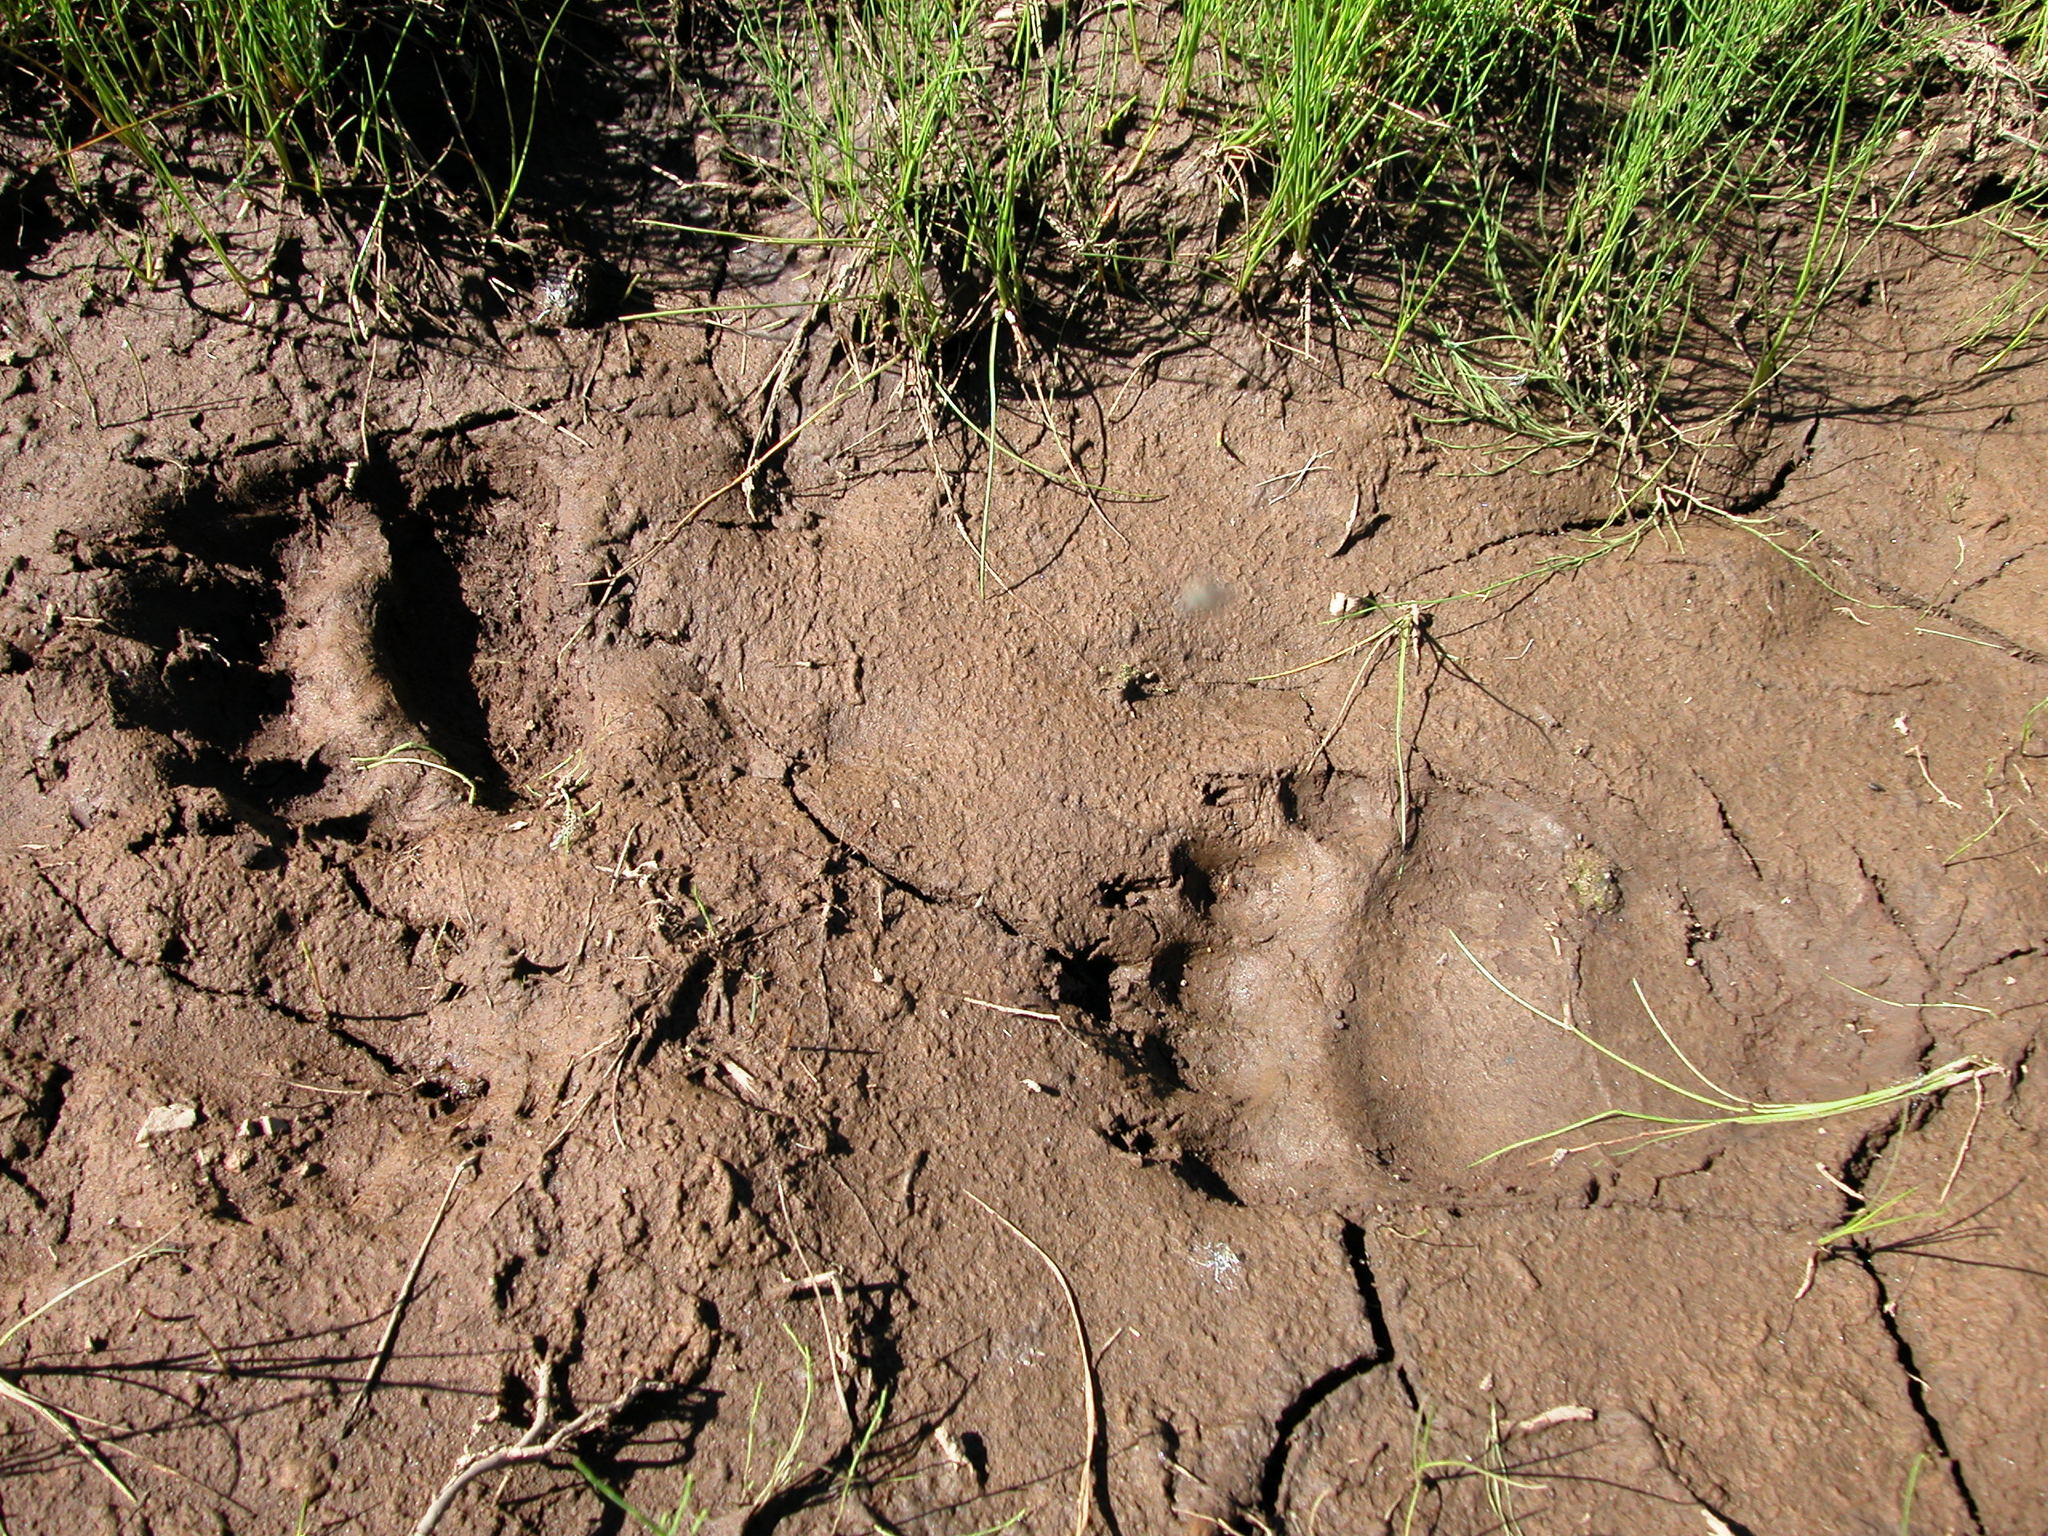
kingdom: Animalia
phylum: Chordata
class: Mammalia
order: Carnivora
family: Ursidae
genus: Ursus
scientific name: Ursus arctos
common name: Brown bear
